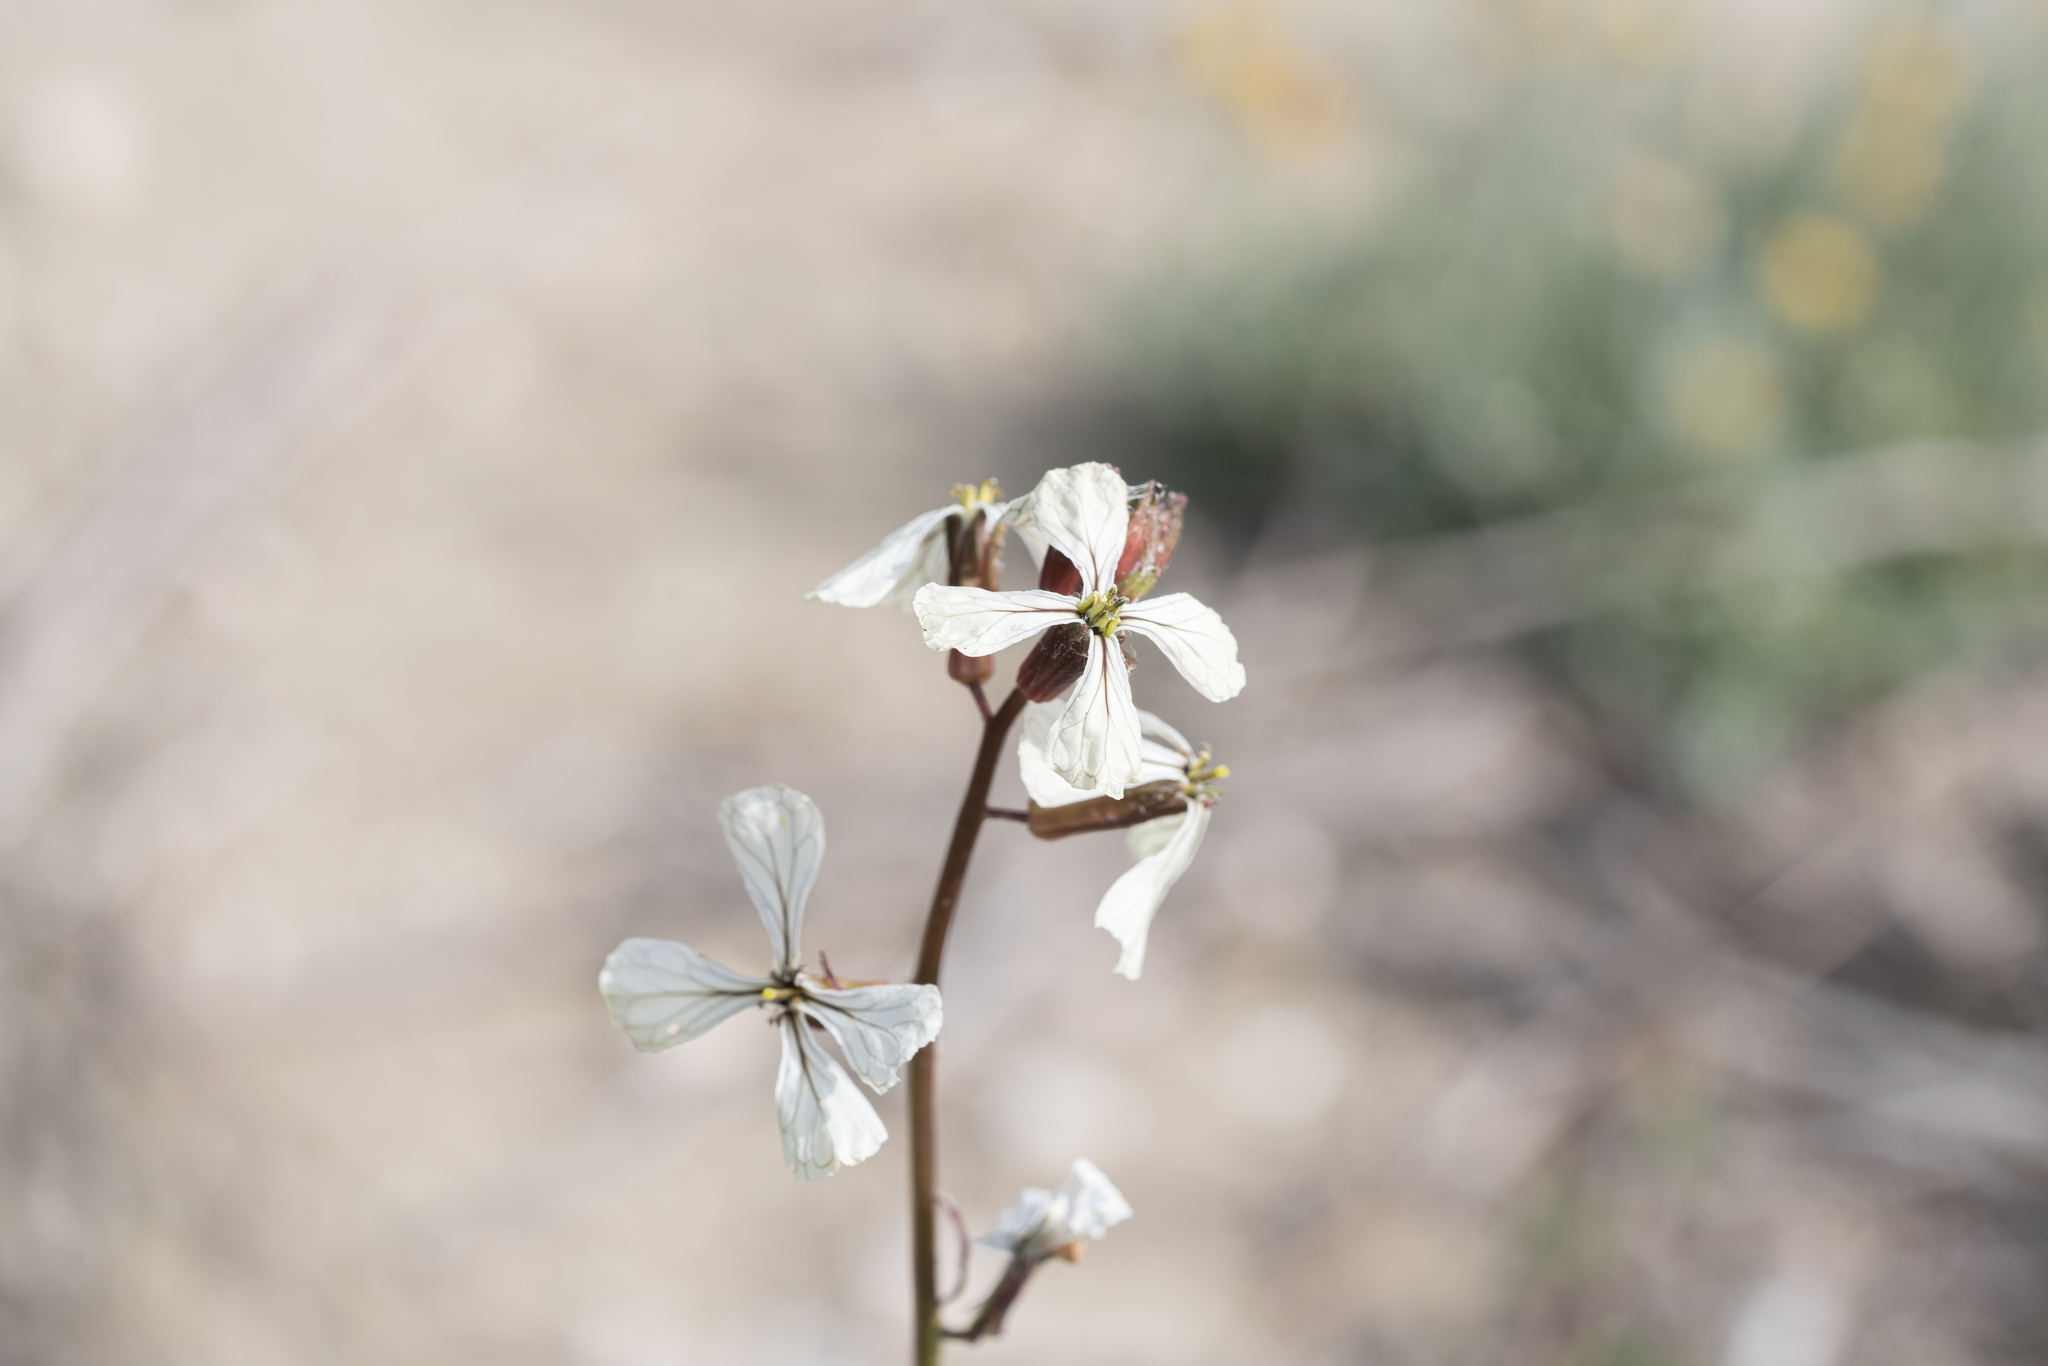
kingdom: Plantae
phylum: Tracheophyta
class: Magnoliopsida
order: Brassicales
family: Brassicaceae
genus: Eruca
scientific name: Eruca vesicaria
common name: Garden rocket
